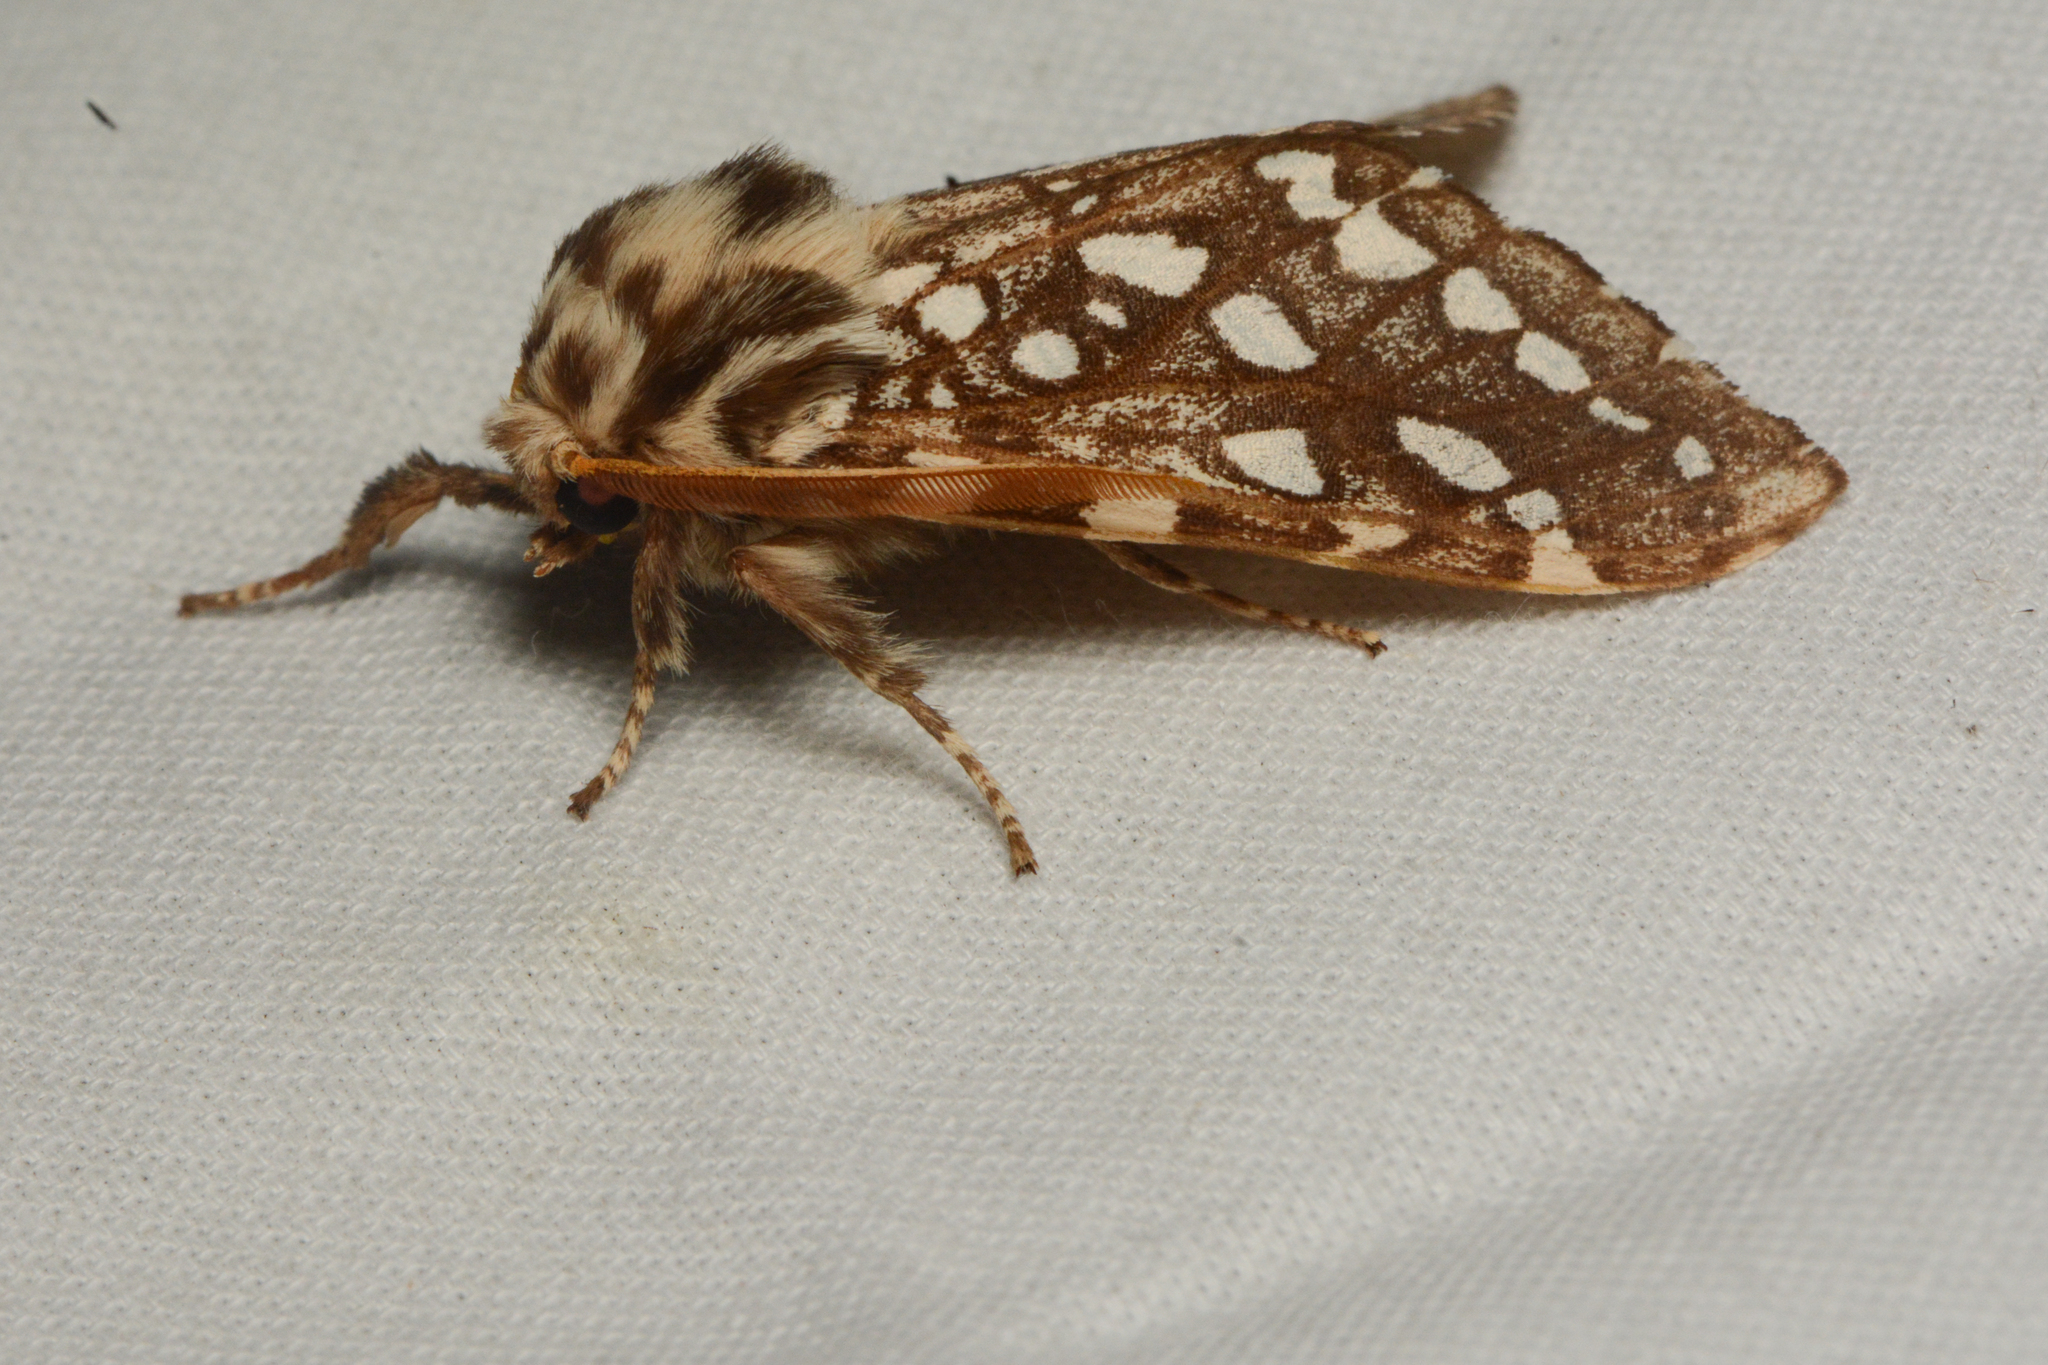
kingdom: Animalia
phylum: Arthropoda
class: Insecta
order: Lepidoptera
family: Erebidae
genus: Lophocampa
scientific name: Lophocampa argentata
